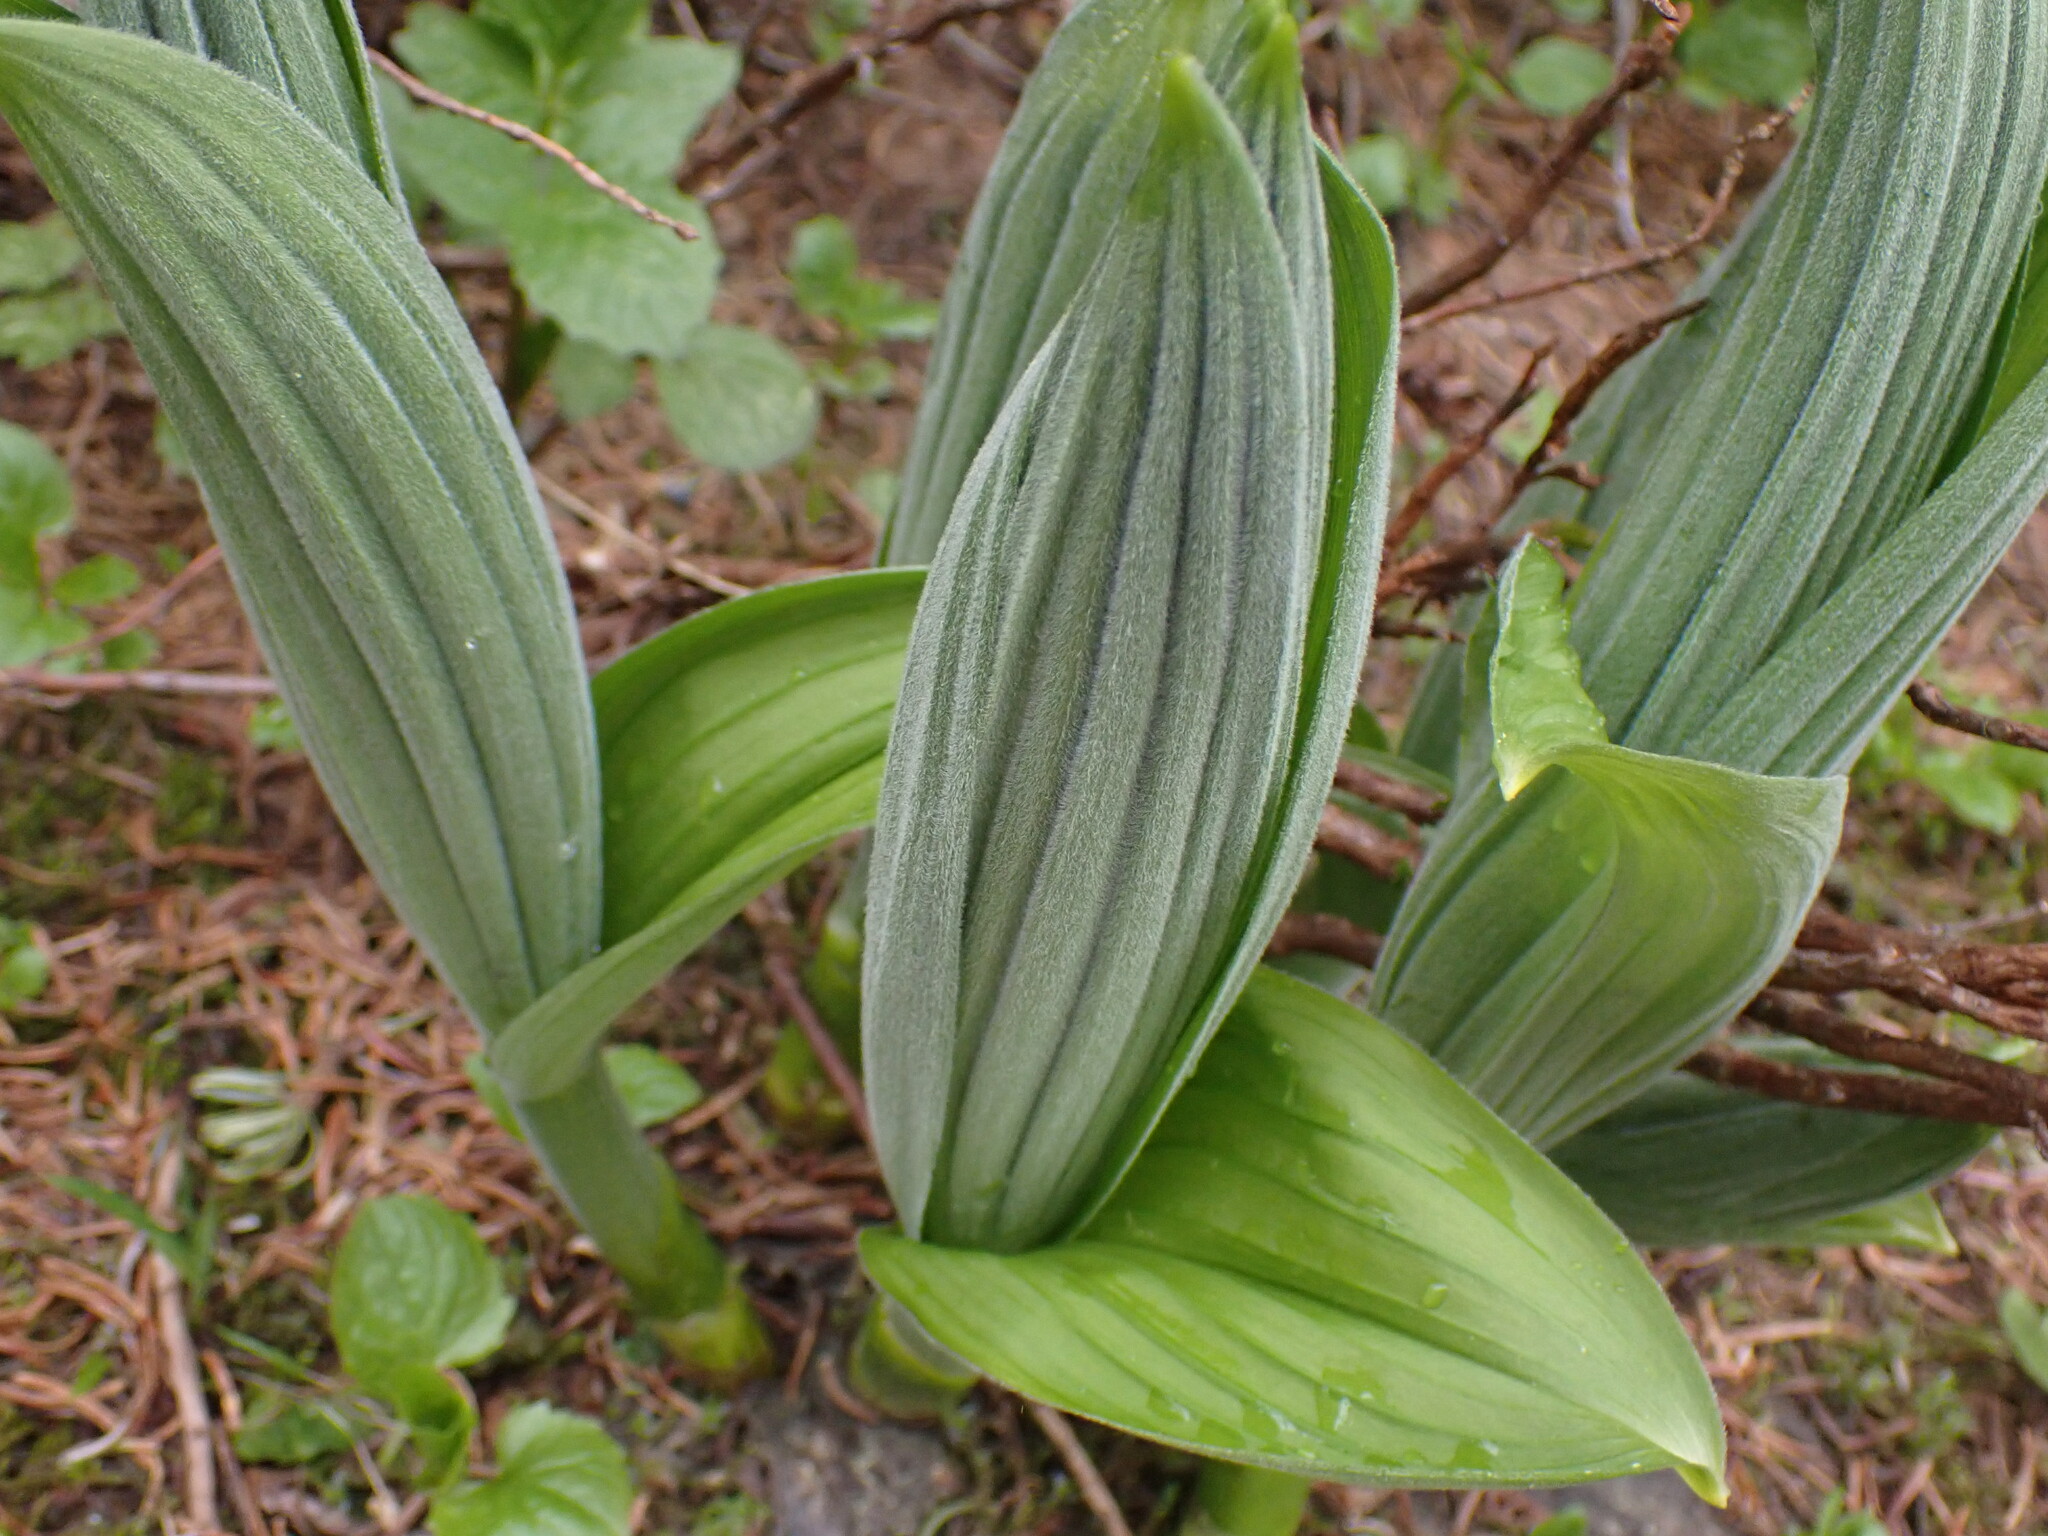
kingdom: Plantae
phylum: Tracheophyta
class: Liliopsida
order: Liliales
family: Melanthiaceae
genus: Veratrum
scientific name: Veratrum viride
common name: American false hellebore
